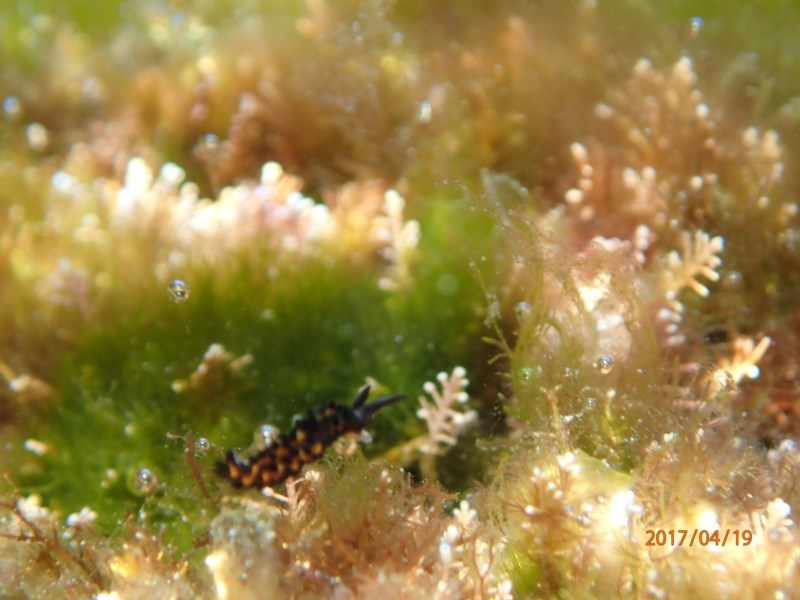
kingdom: Animalia
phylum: Mollusca
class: Gastropoda
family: Limapontiidae
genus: Placida
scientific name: Placida barackobamai
